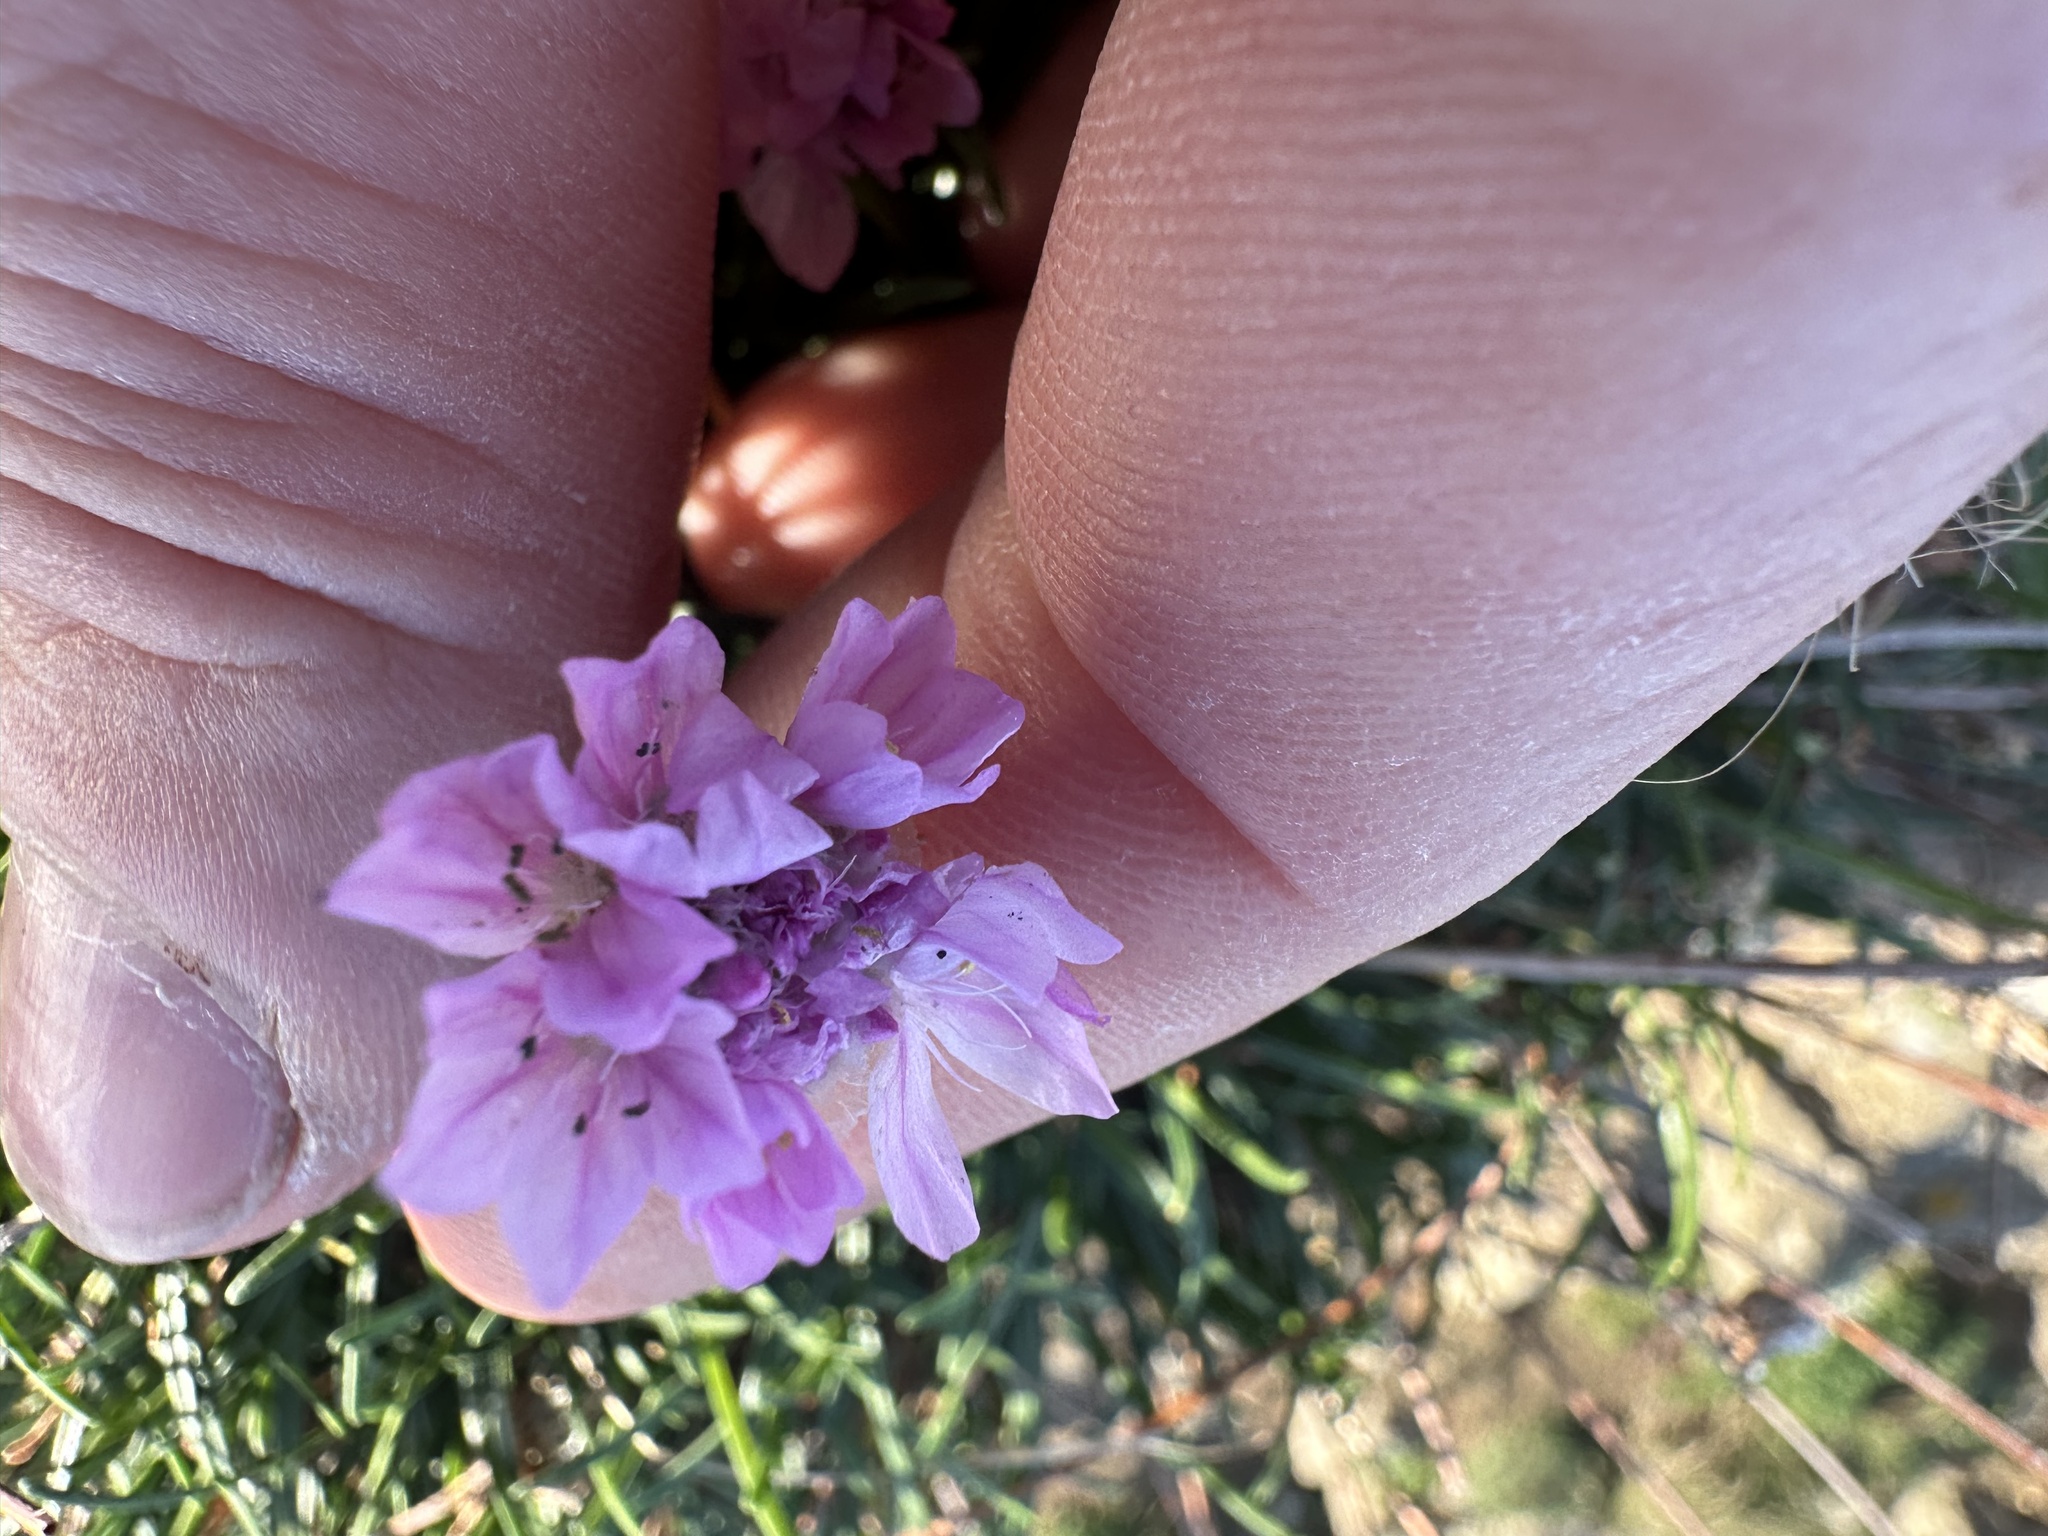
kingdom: Plantae
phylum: Tracheophyta
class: Magnoliopsida
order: Caryophyllales
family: Plumbaginaceae
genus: Armeria
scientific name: Armeria maritima
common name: Thrift
